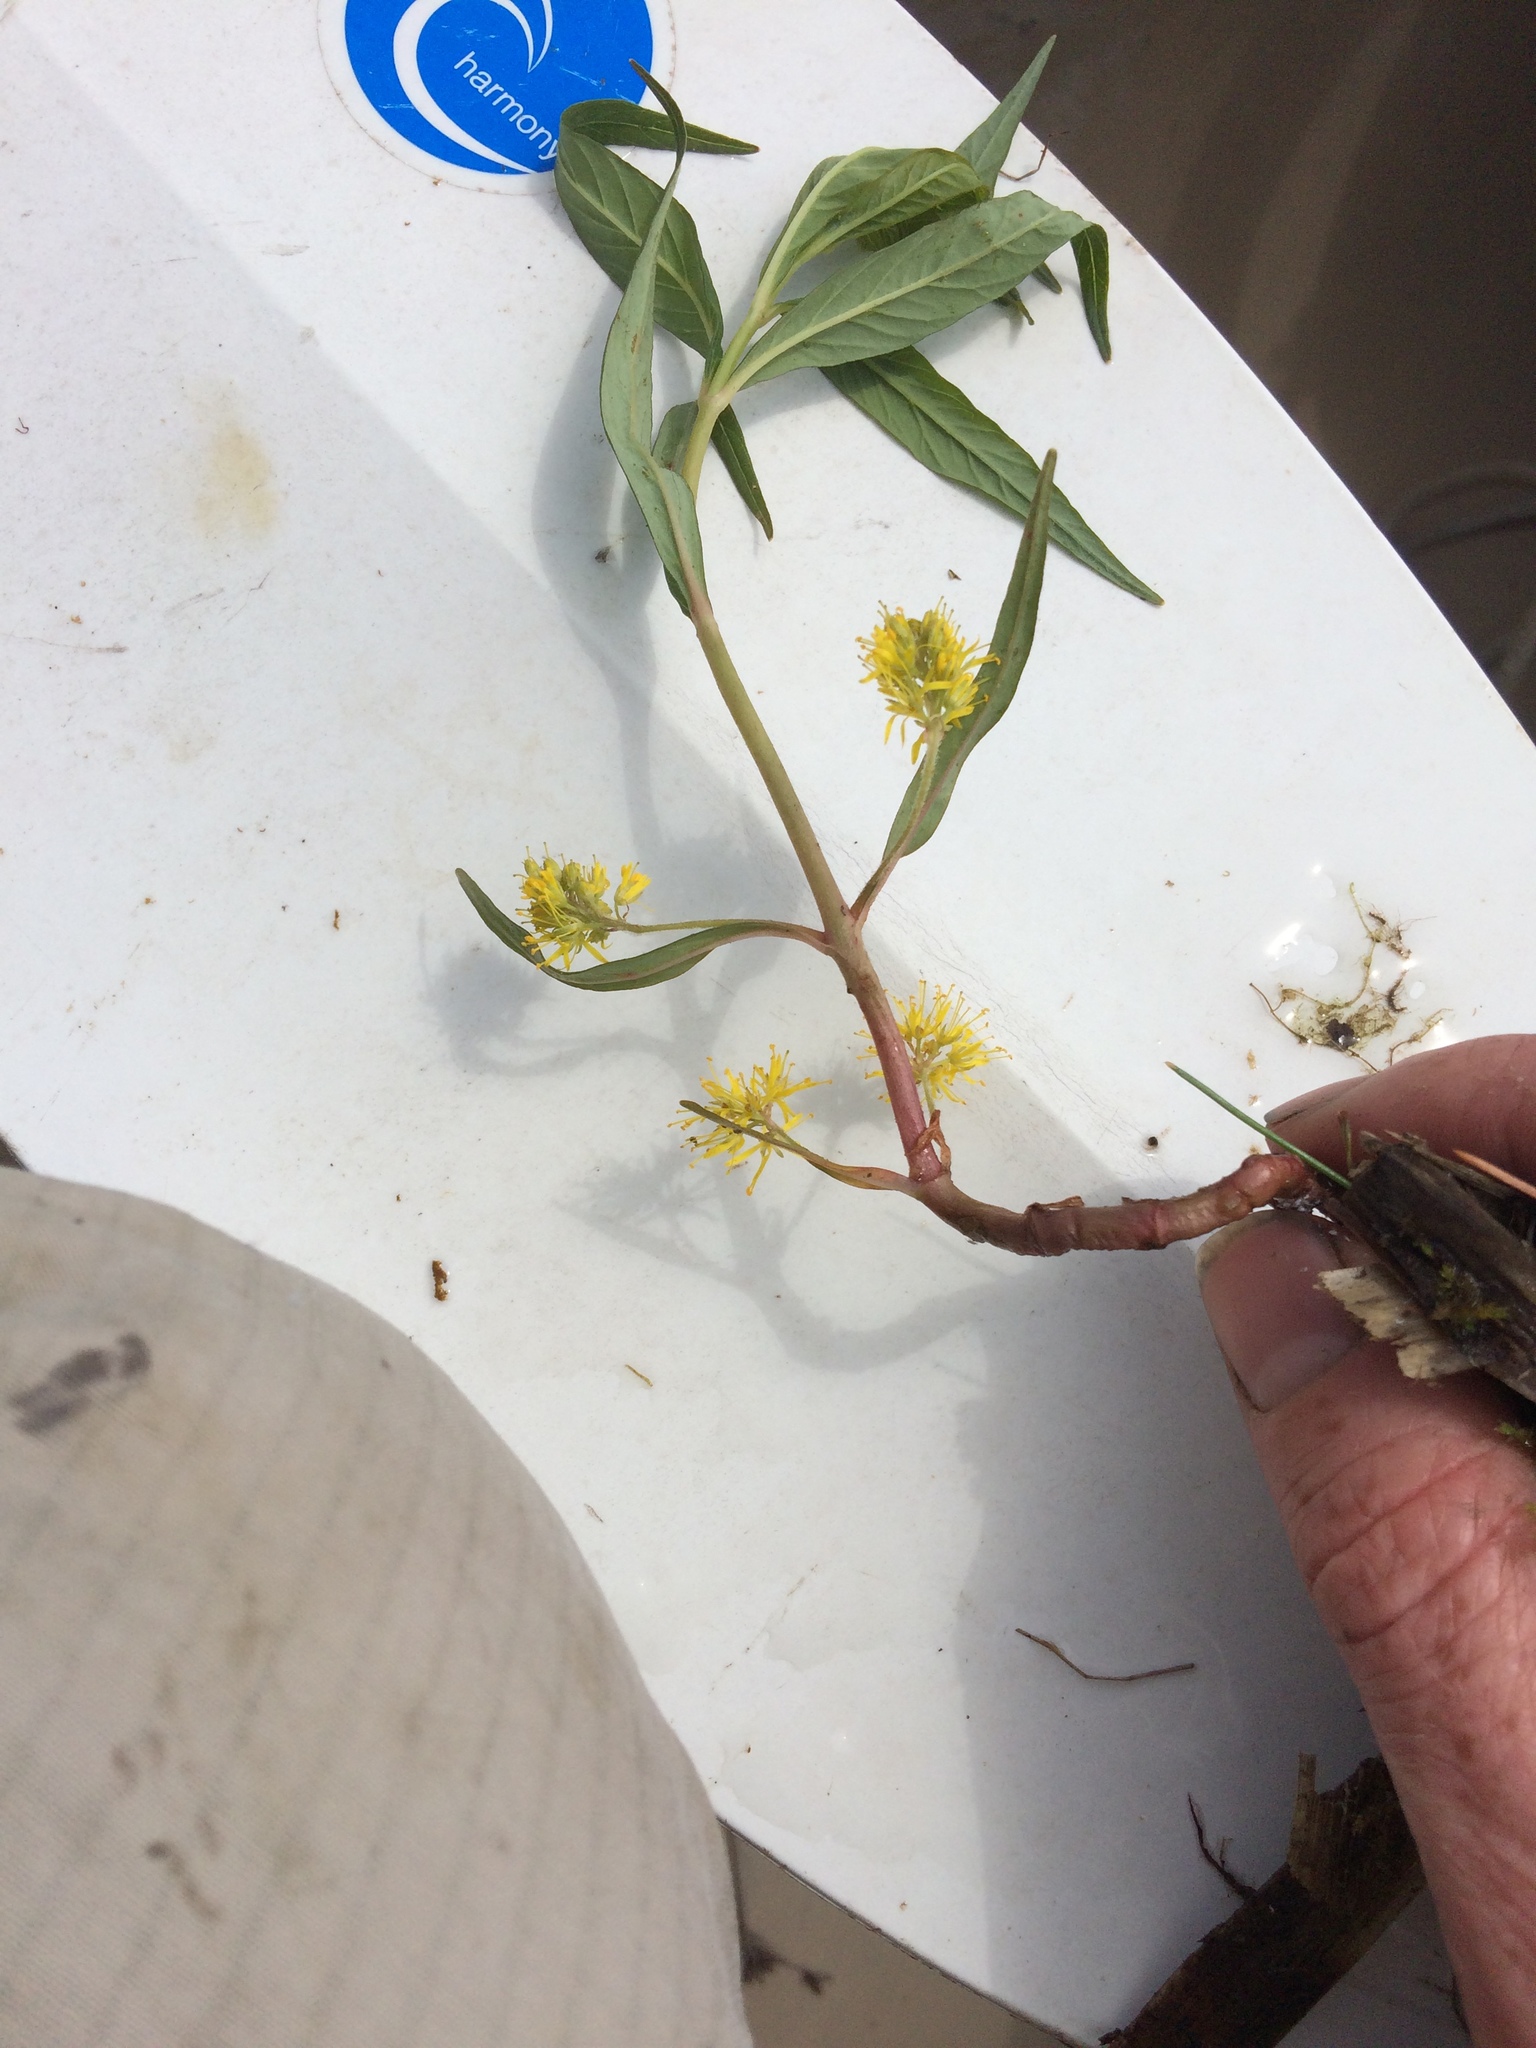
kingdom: Plantae
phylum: Tracheophyta
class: Magnoliopsida
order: Ericales
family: Primulaceae
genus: Lysimachia
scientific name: Lysimachia thyrsiflora
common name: Tufted loosestrife
